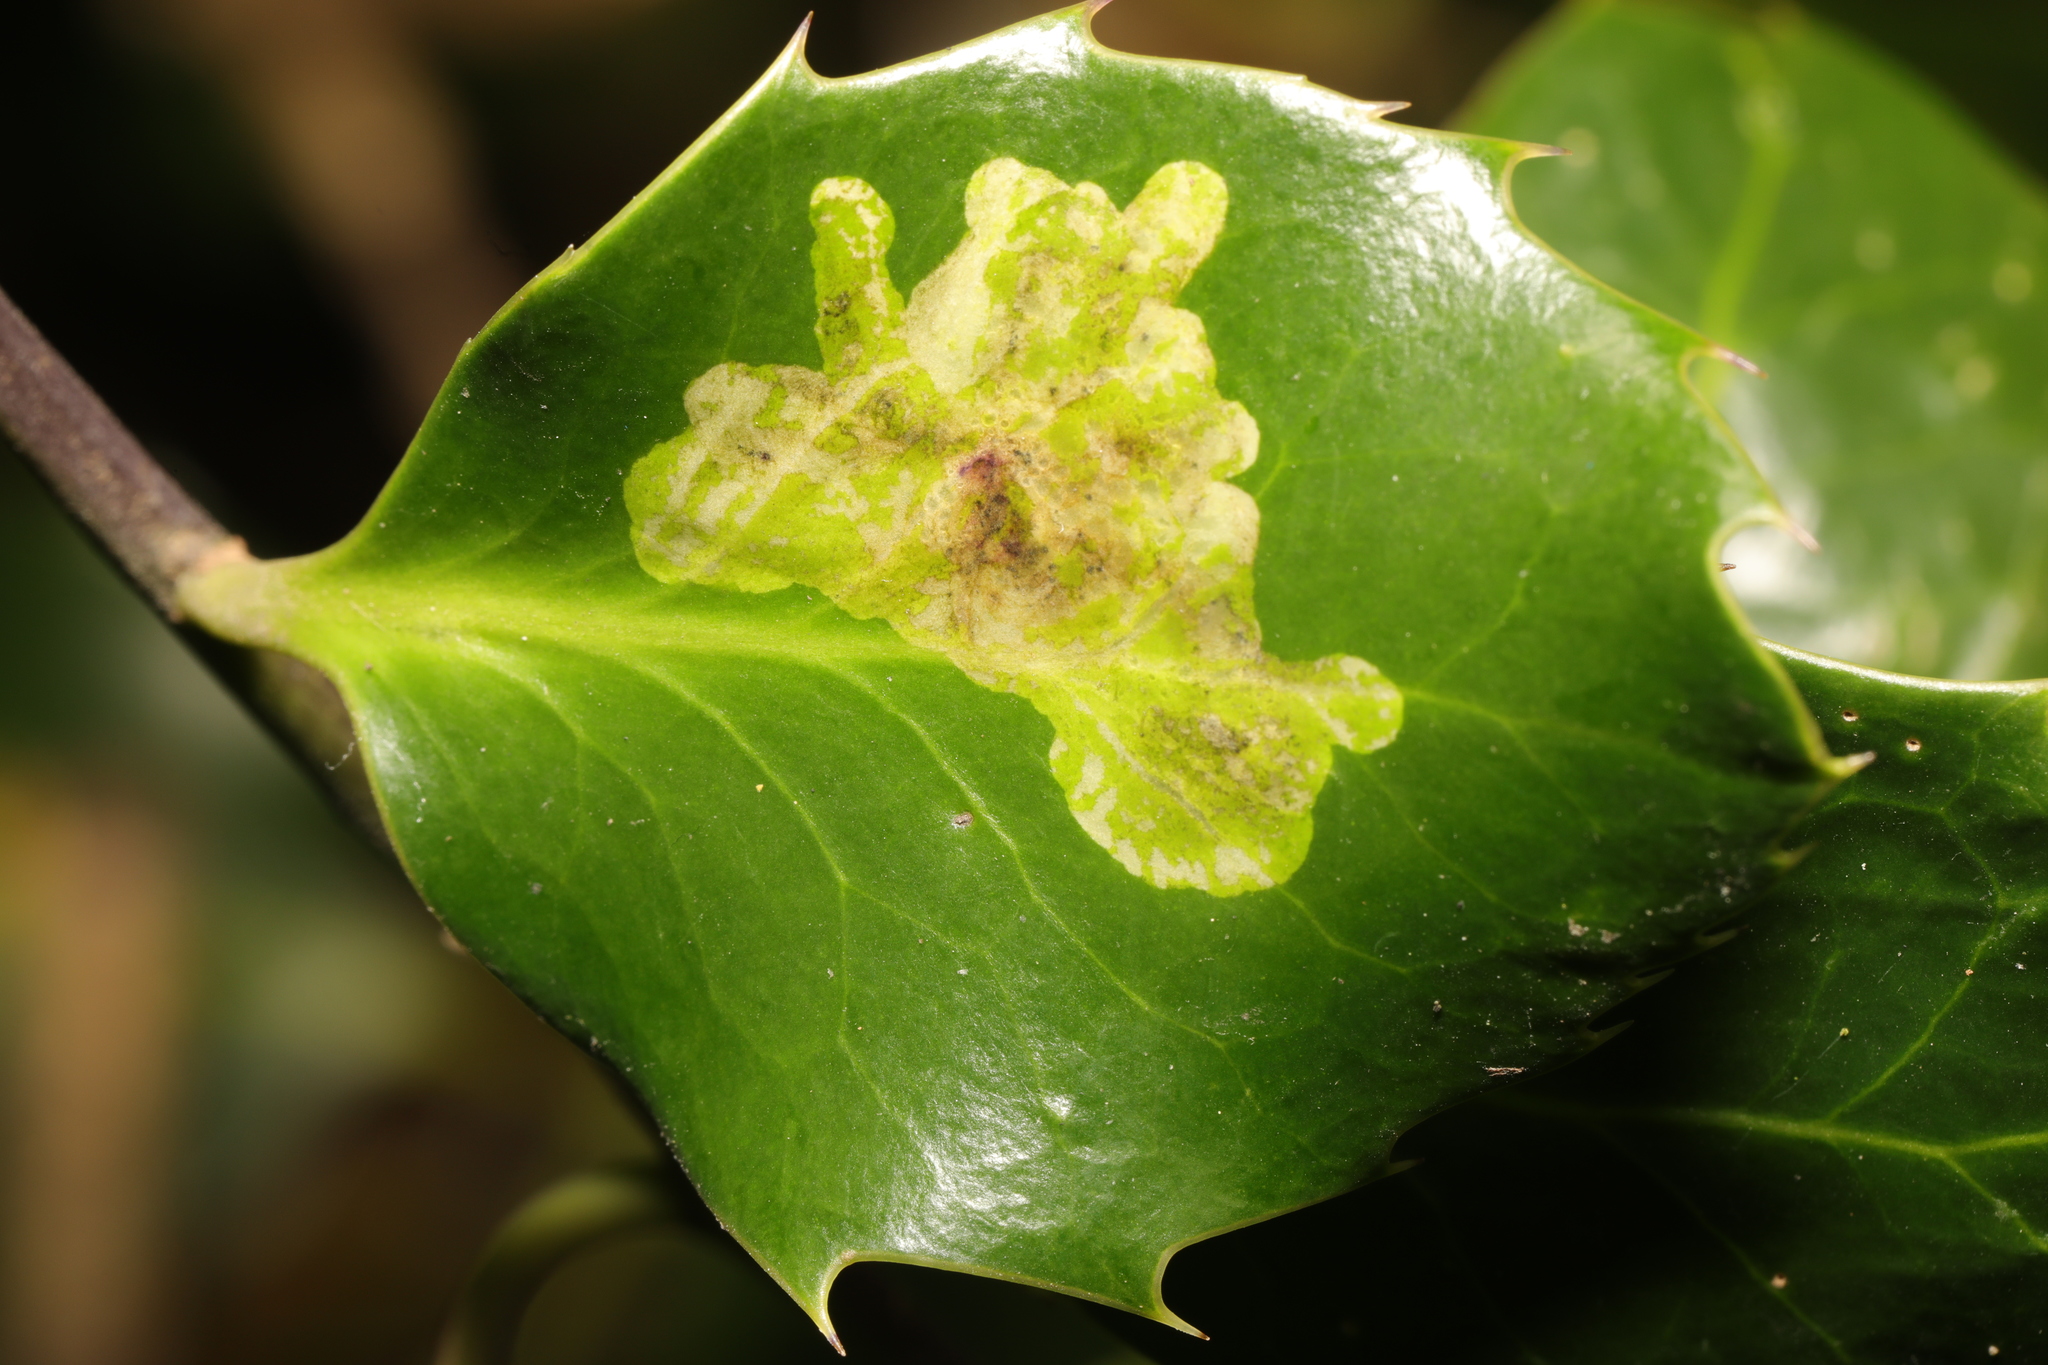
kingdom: Animalia
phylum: Arthropoda
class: Insecta
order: Diptera
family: Agromyzidae
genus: Phytomyza
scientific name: Phytomyza ilicis
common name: Holly leafminer
